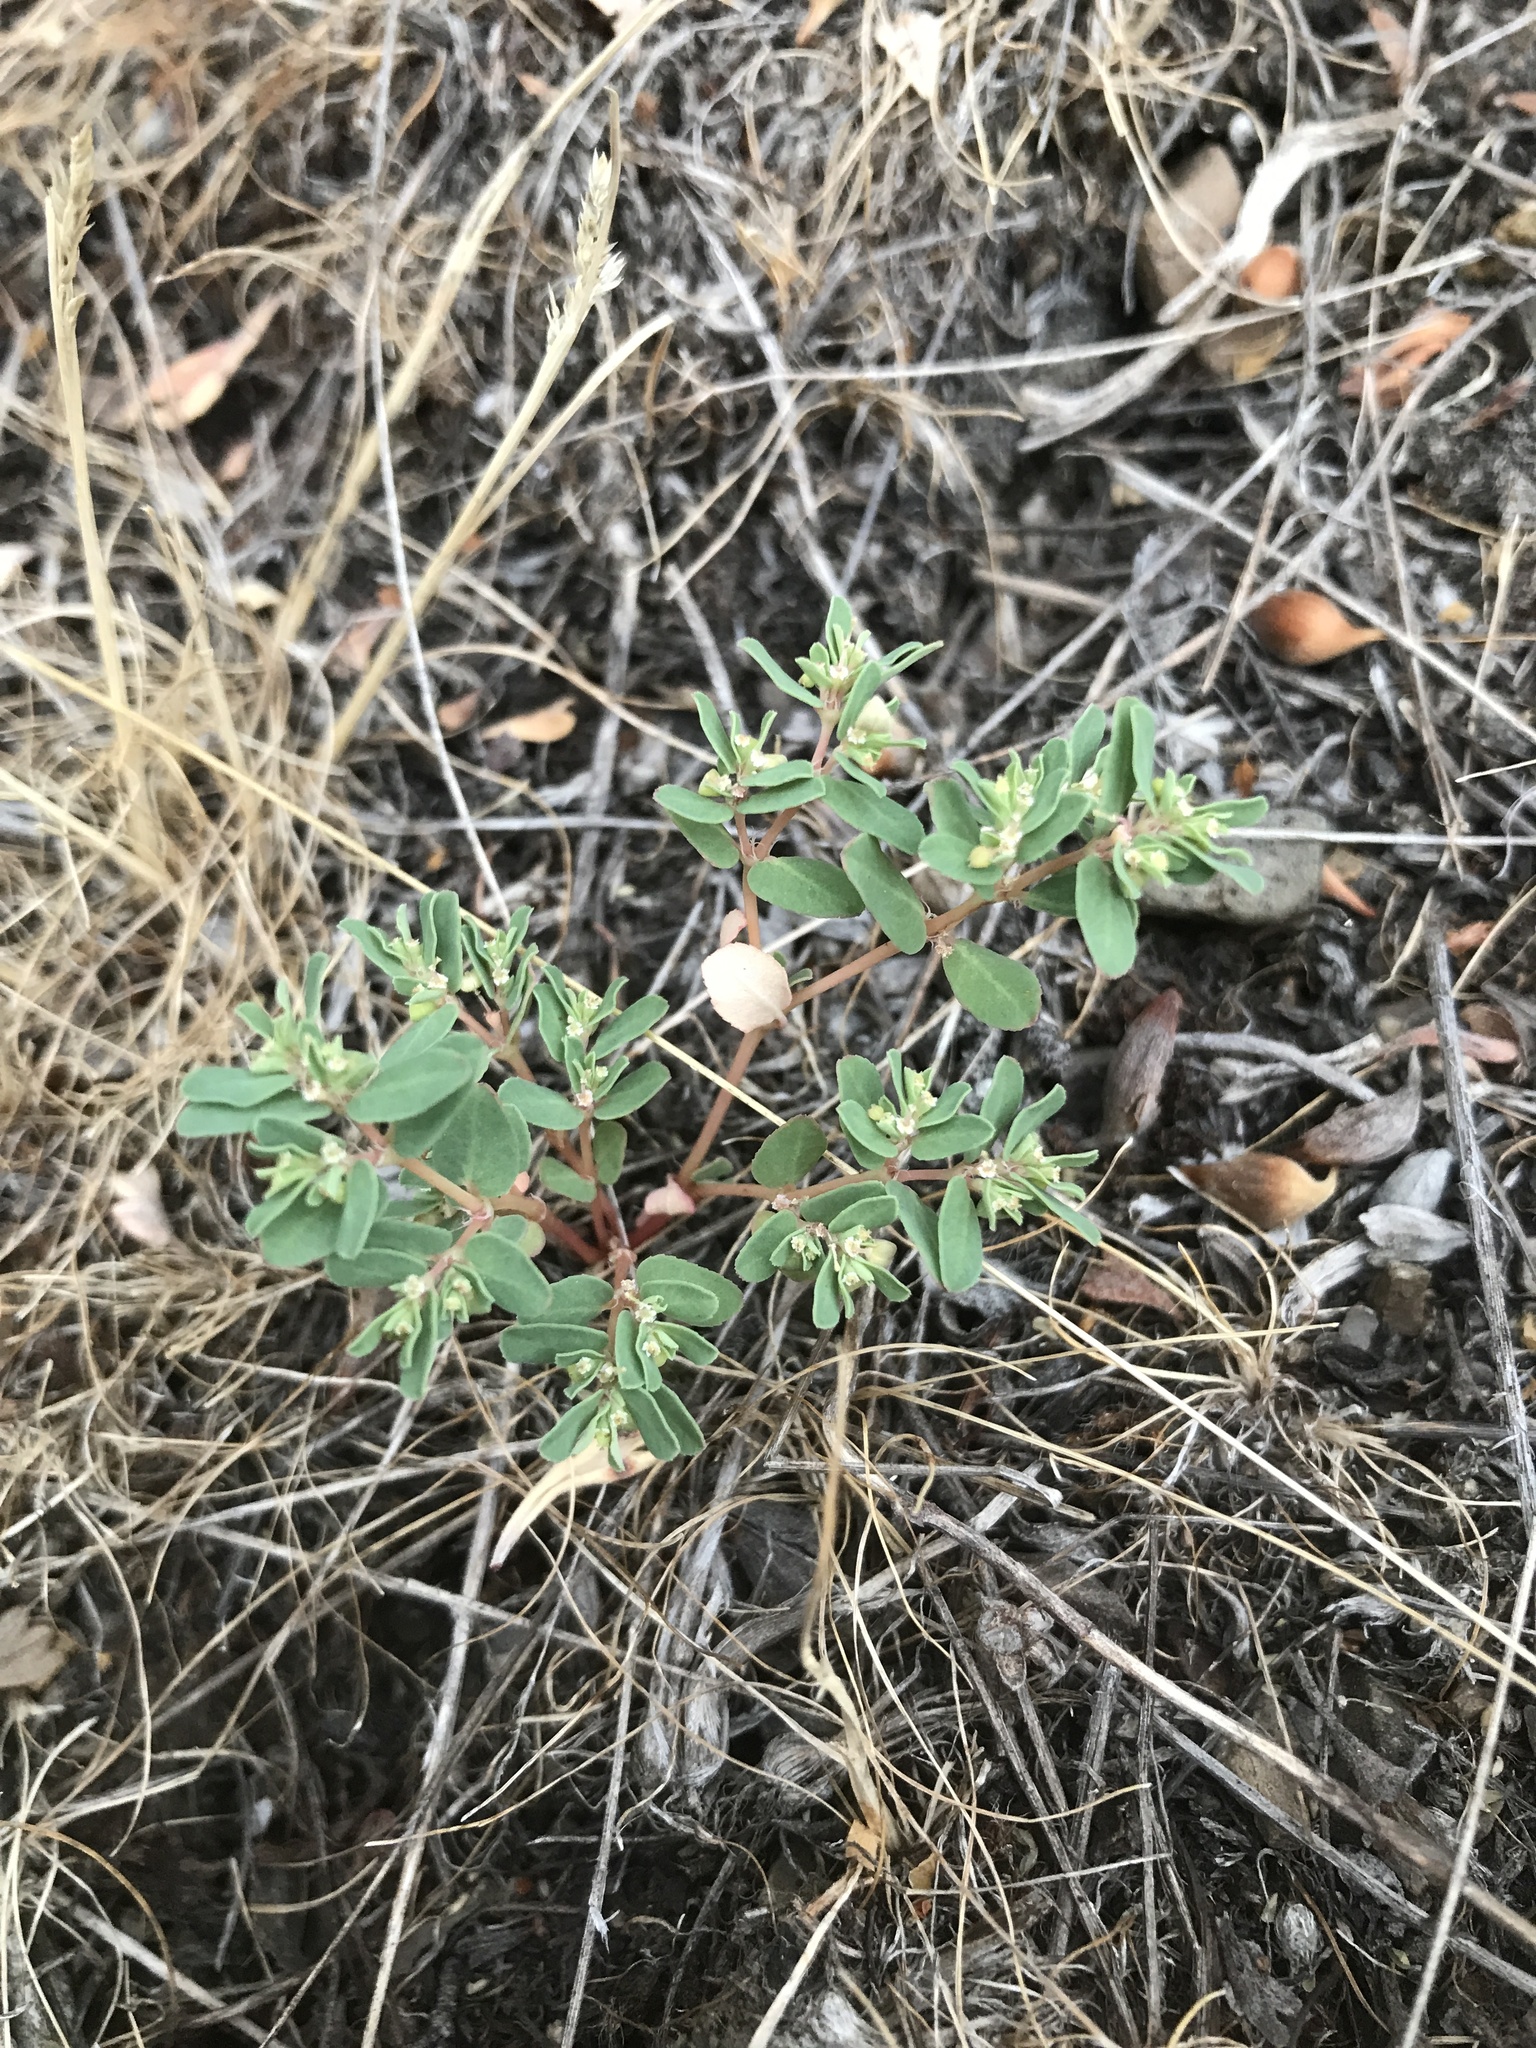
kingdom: Plantae
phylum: Tracheophyta
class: Magnoliopsida
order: Malpighiales
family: Euphorbiaceae
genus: Euphorbia
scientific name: Euphorbia glyptosperma
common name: Corrugate-seeded spurge
